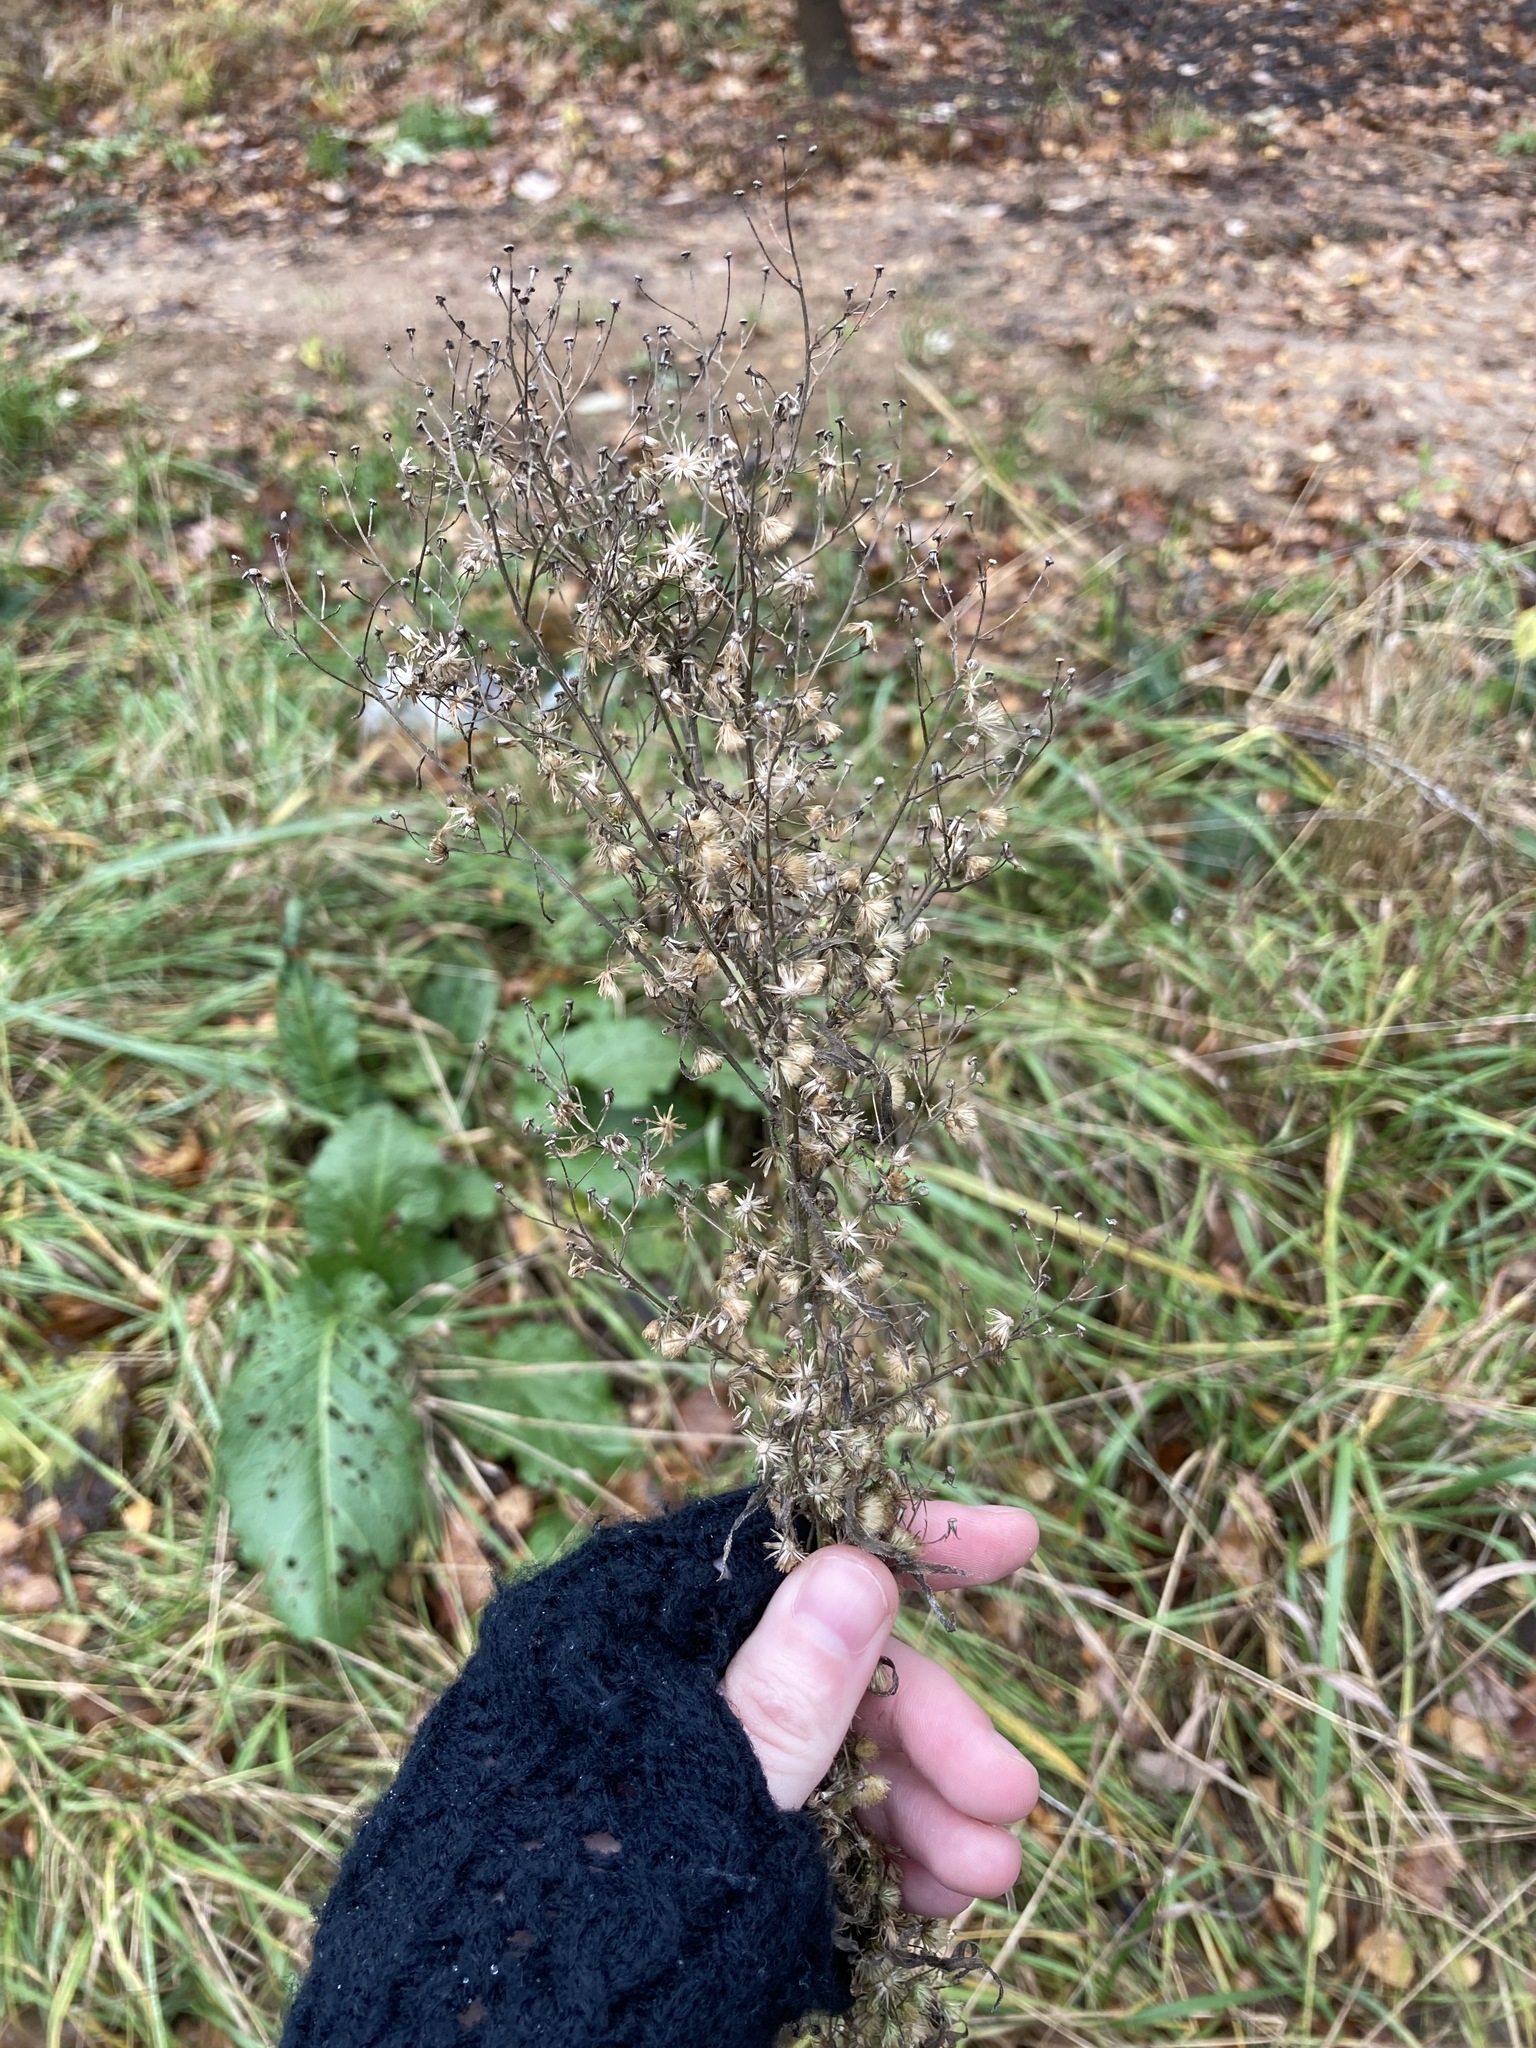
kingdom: Plantae
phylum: Tracheophyta
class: Magnoliopsida
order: Asterales
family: Asteraceae
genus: Erigeron
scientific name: Erigeron canadensis
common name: Canadian fleabane
